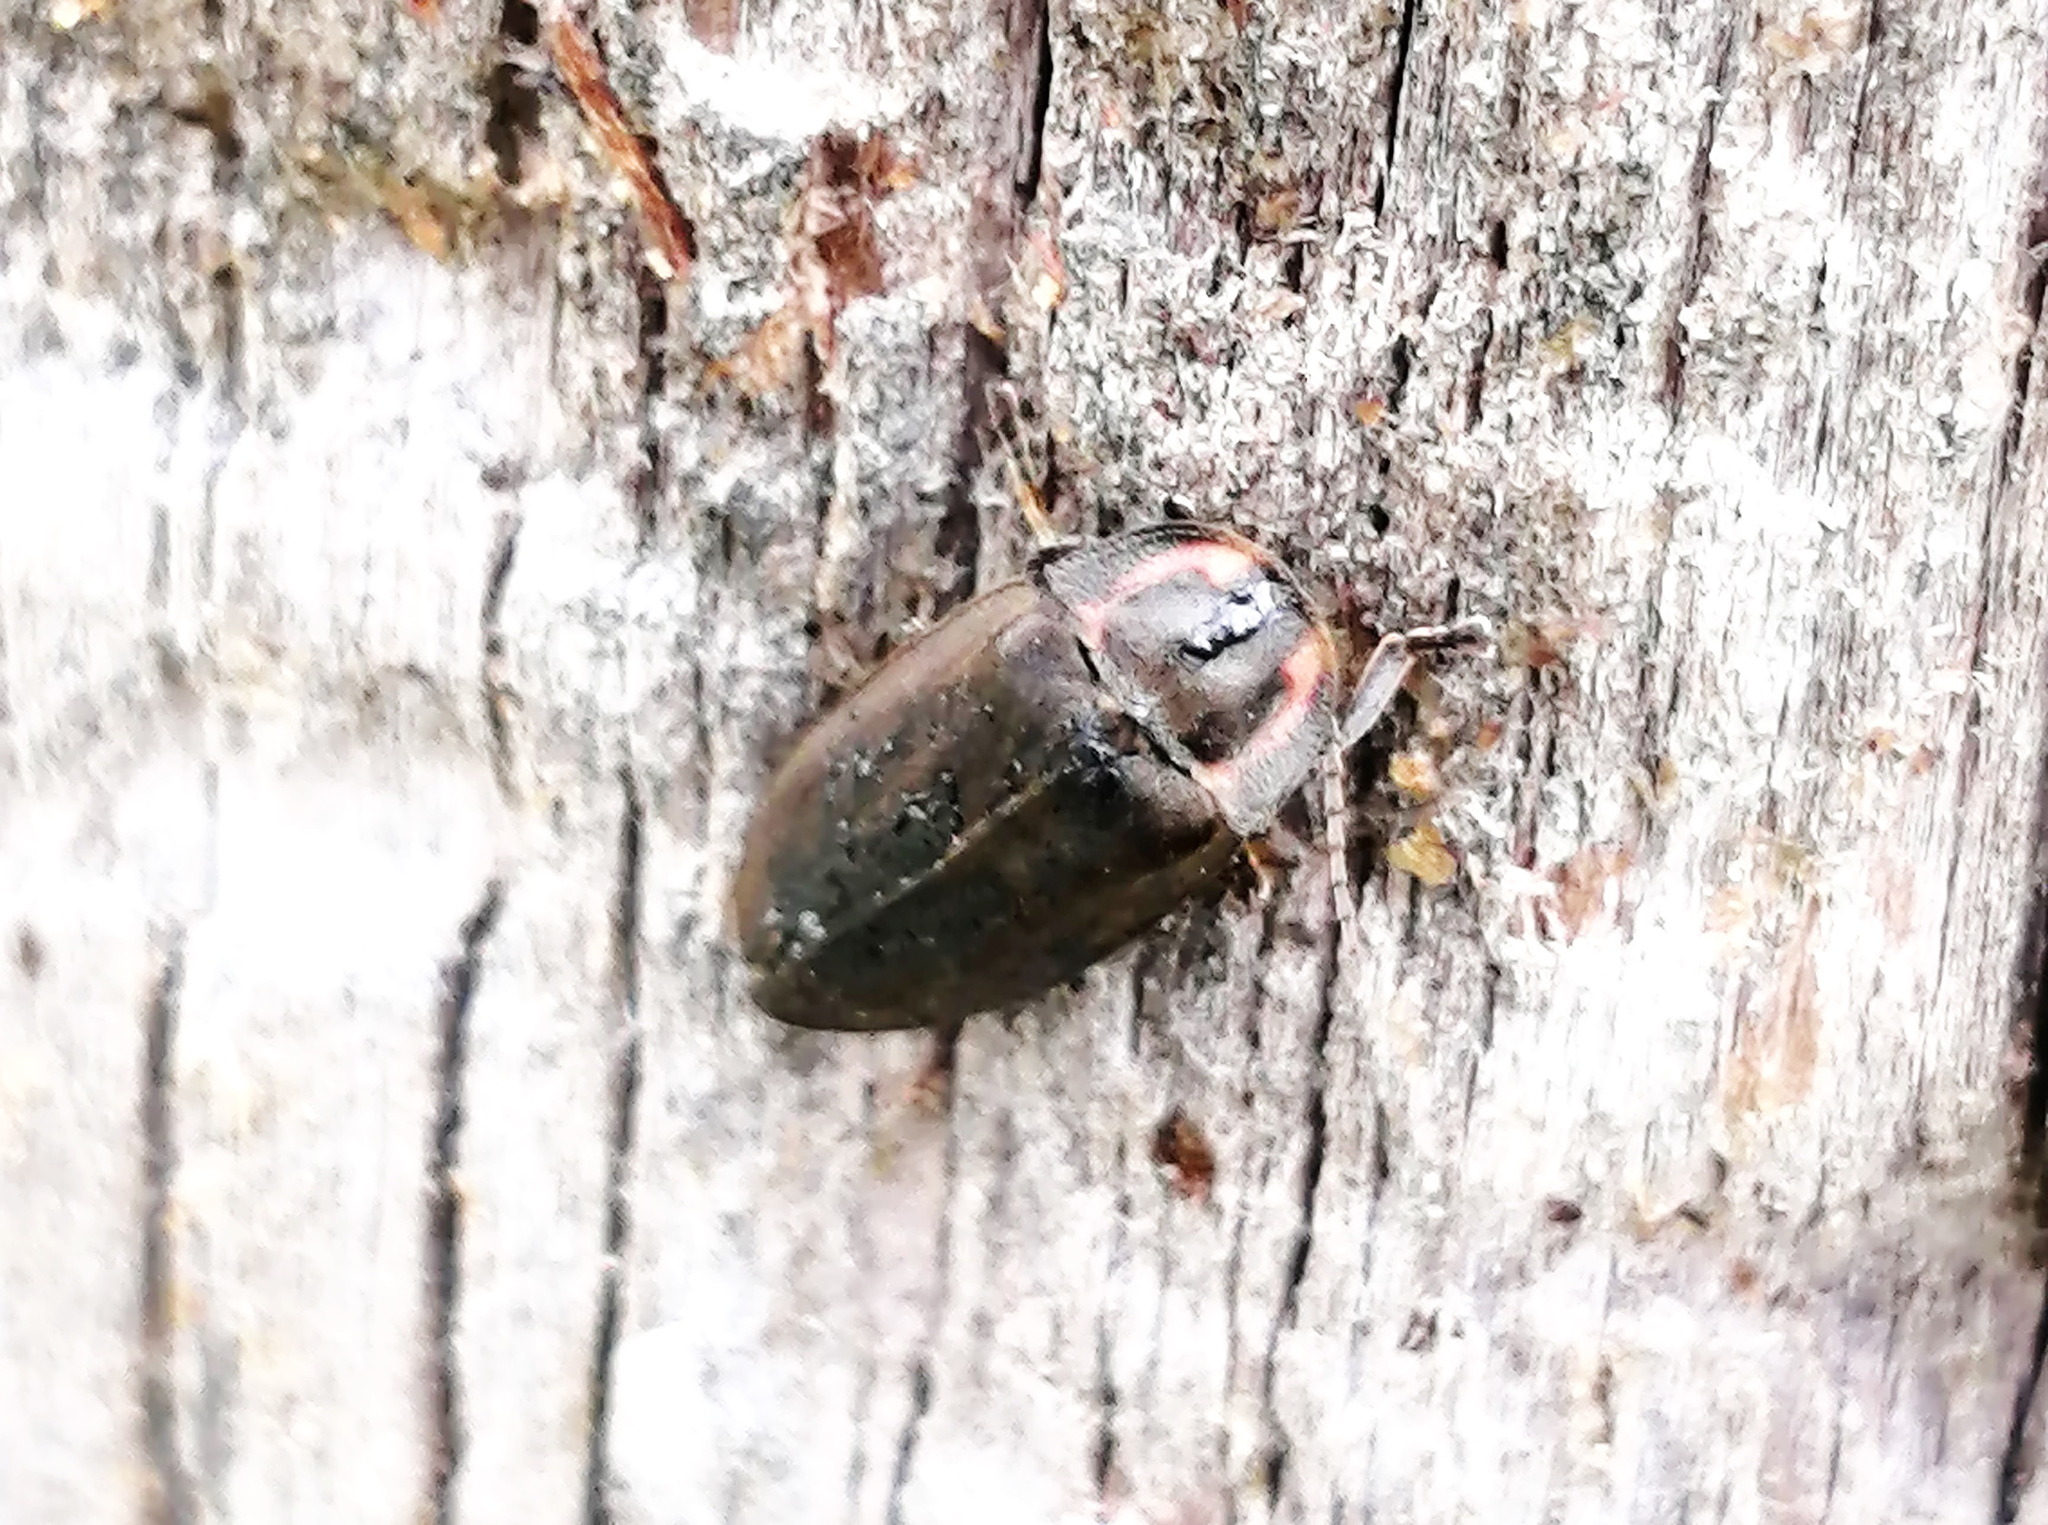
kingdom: Animalia
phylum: Arthropoda
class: Insecta
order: Coleoptera
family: Lampyridae
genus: Photinus
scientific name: Photinus corrusca
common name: Winter firefly
